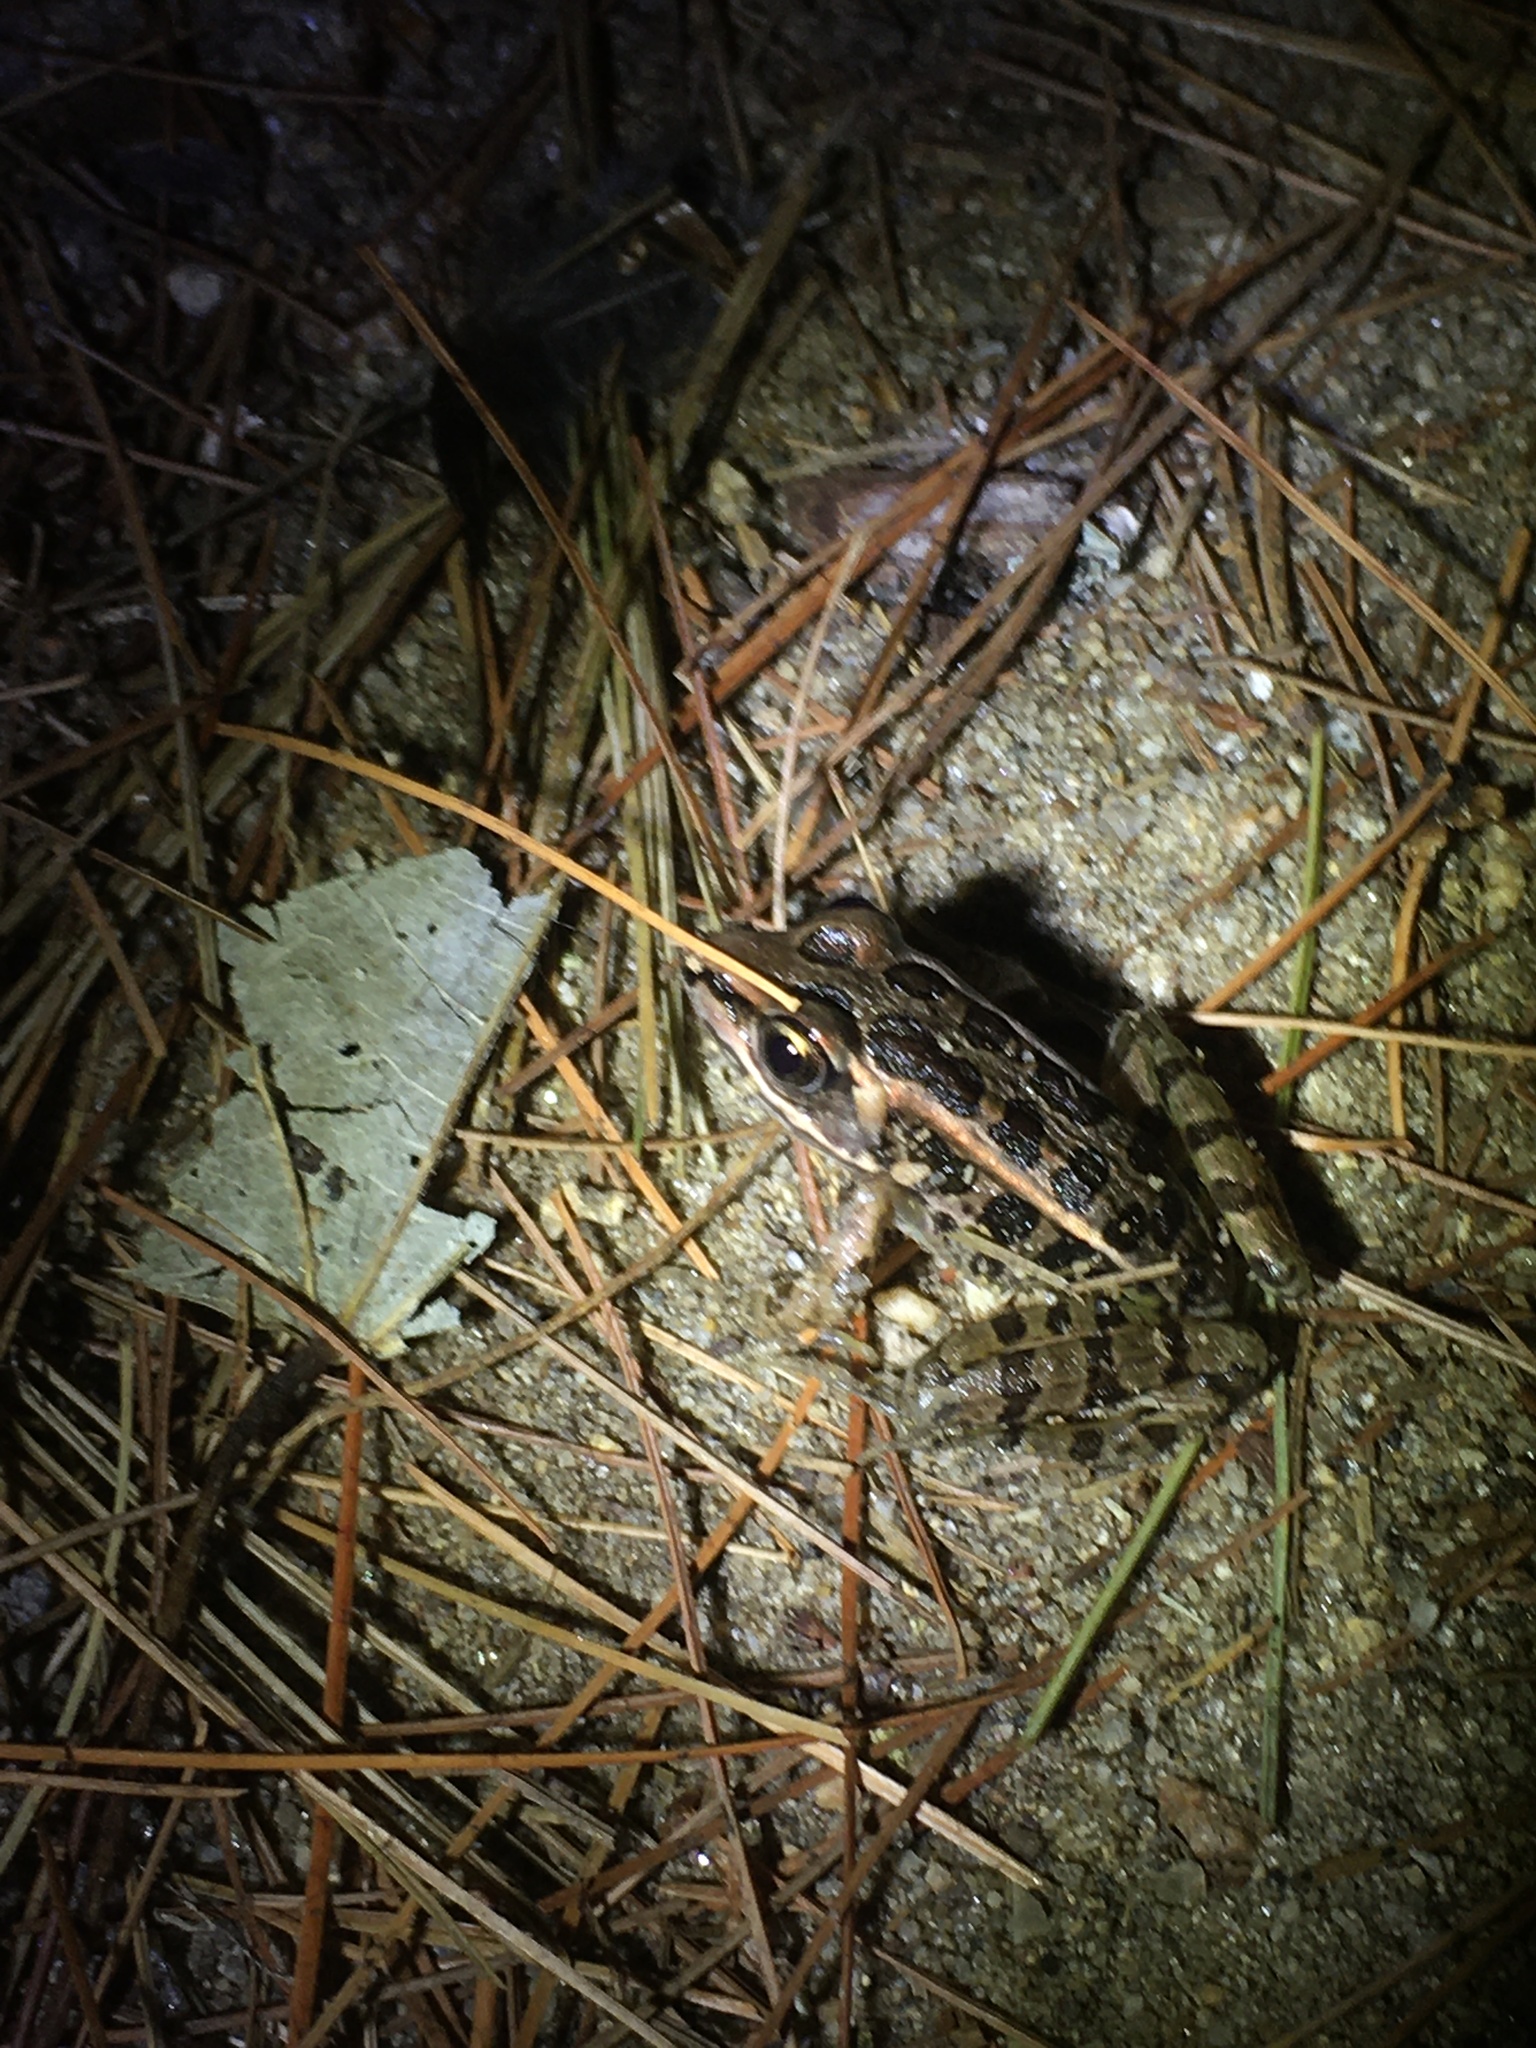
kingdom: Animalia
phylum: Chordata
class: Amphibia
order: Anura
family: Ranidae
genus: Lithobates
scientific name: Lithobates palustris
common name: Pickerel frog
